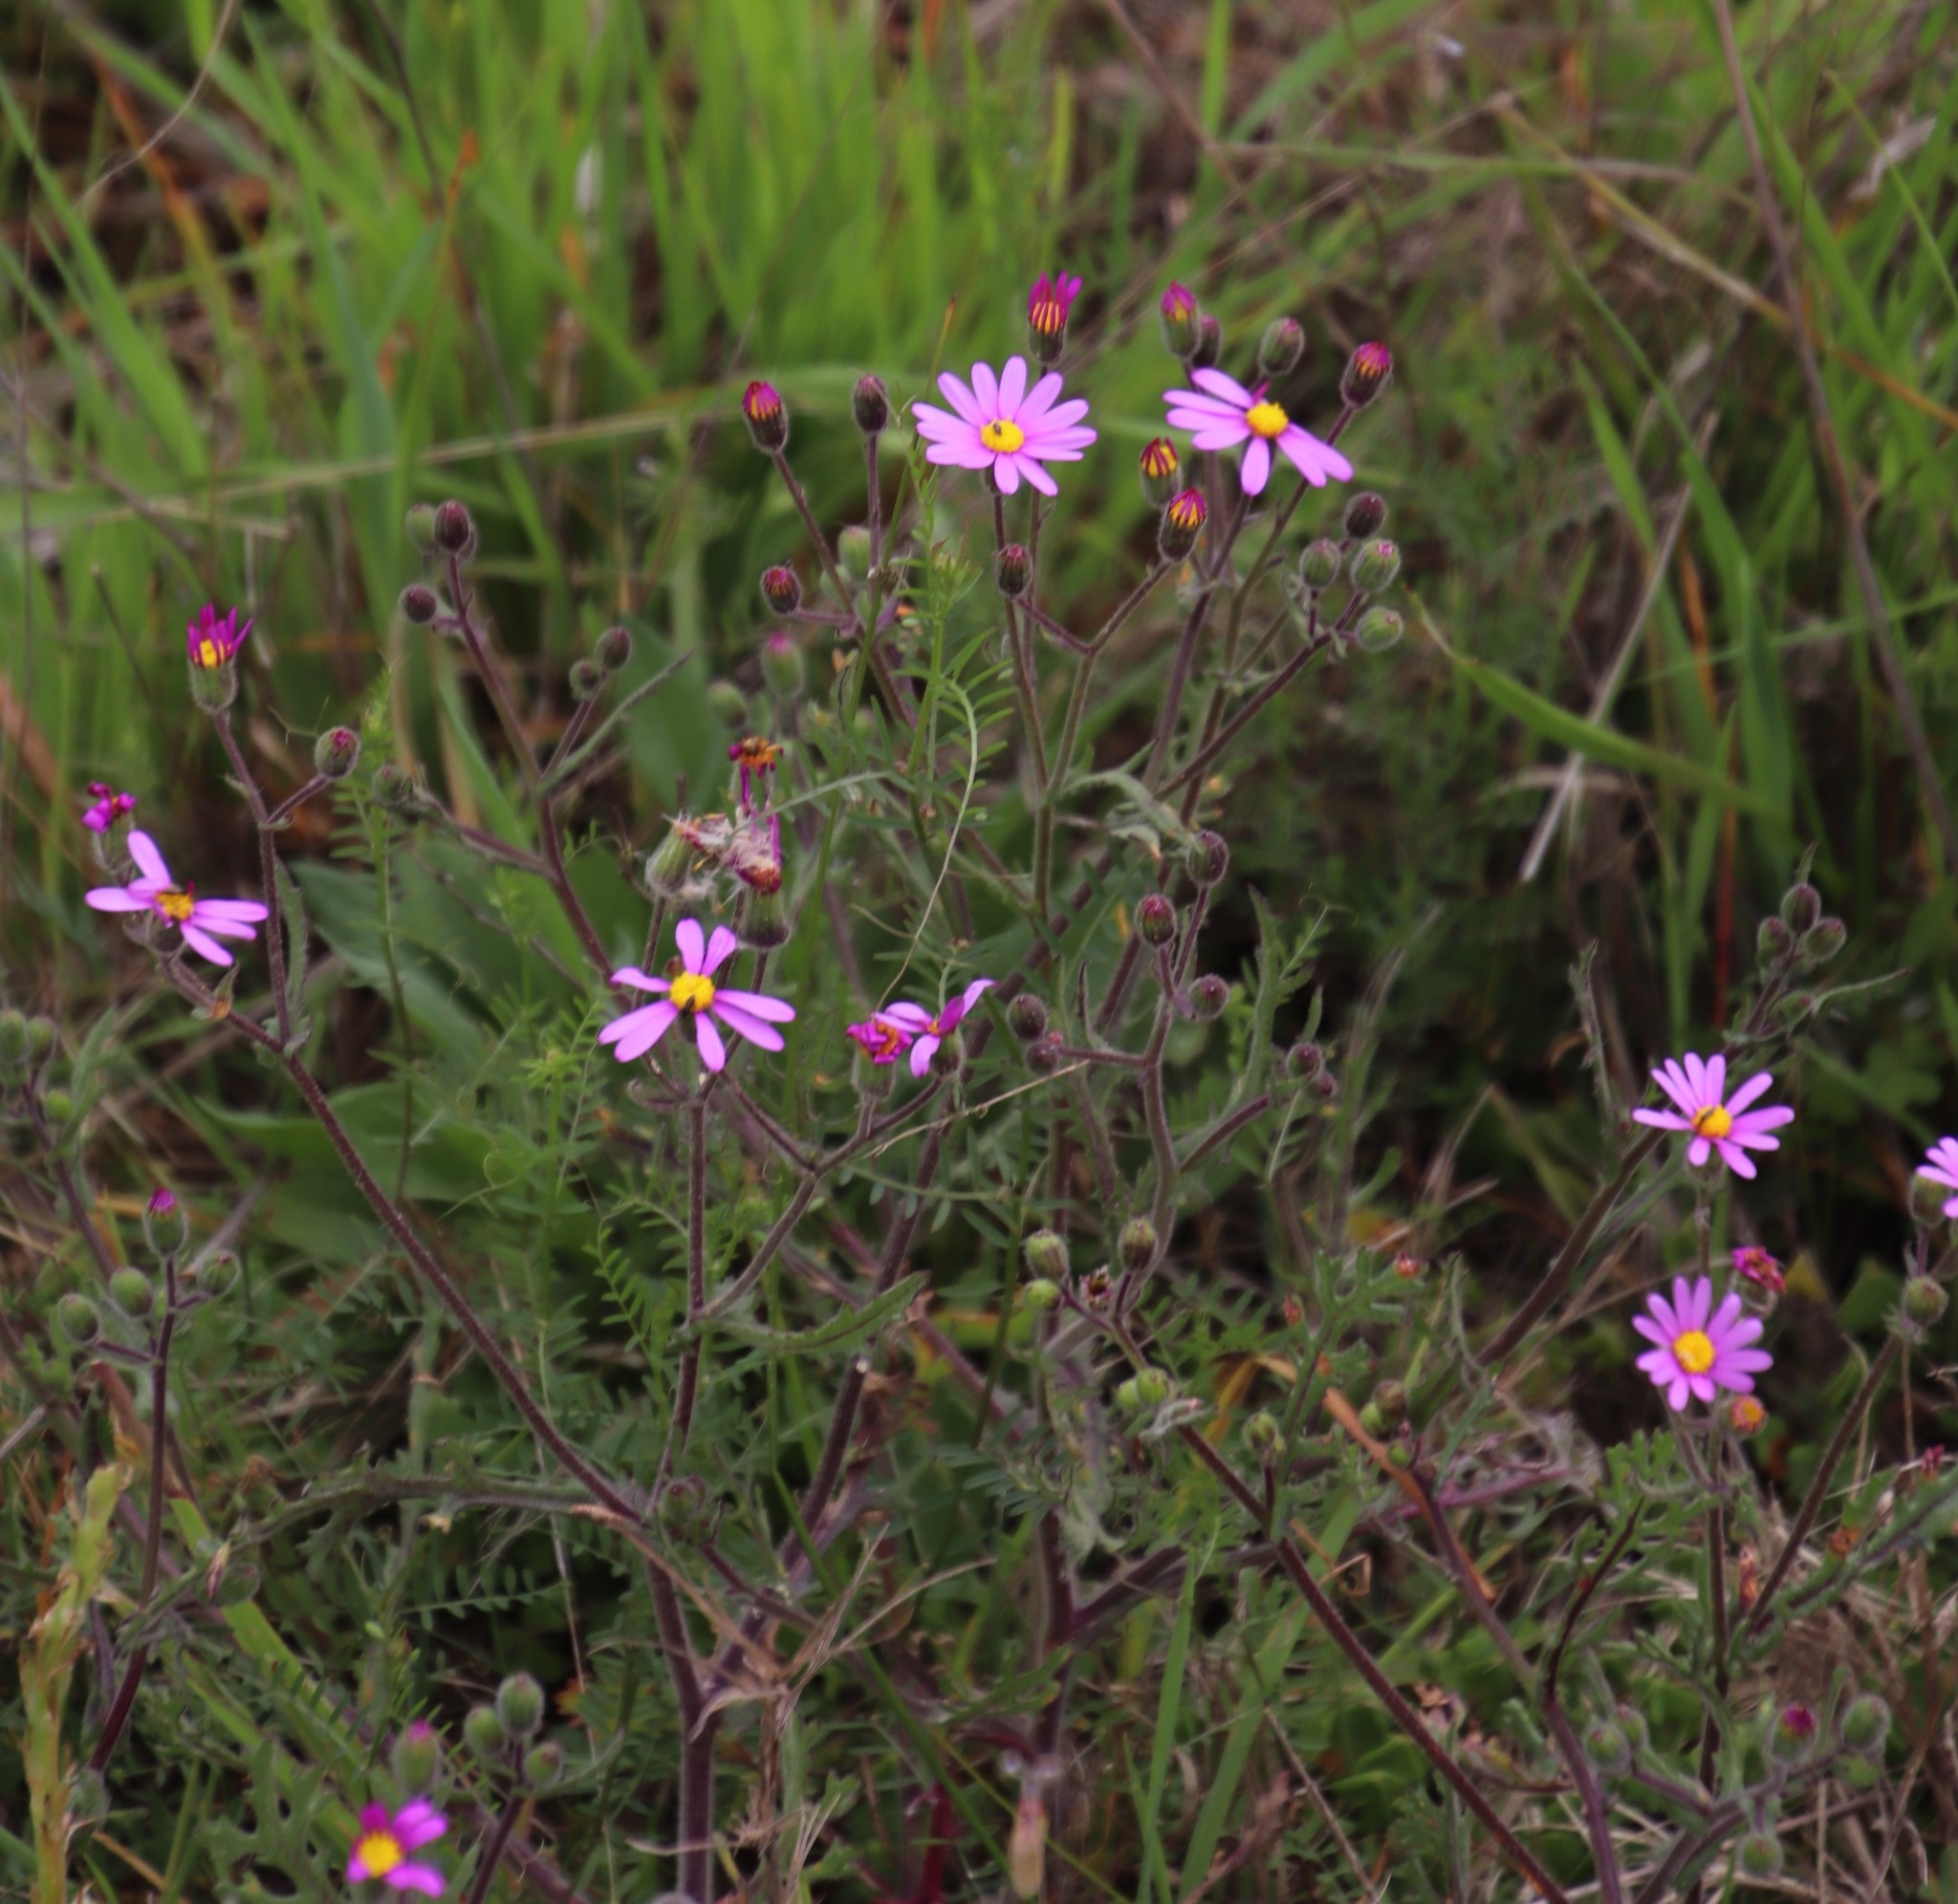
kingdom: Plantae
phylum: Tracheophyta
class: Magnoliopsida
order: Asterales
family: Asteraceae
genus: Senecio
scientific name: Senecio arenarius
